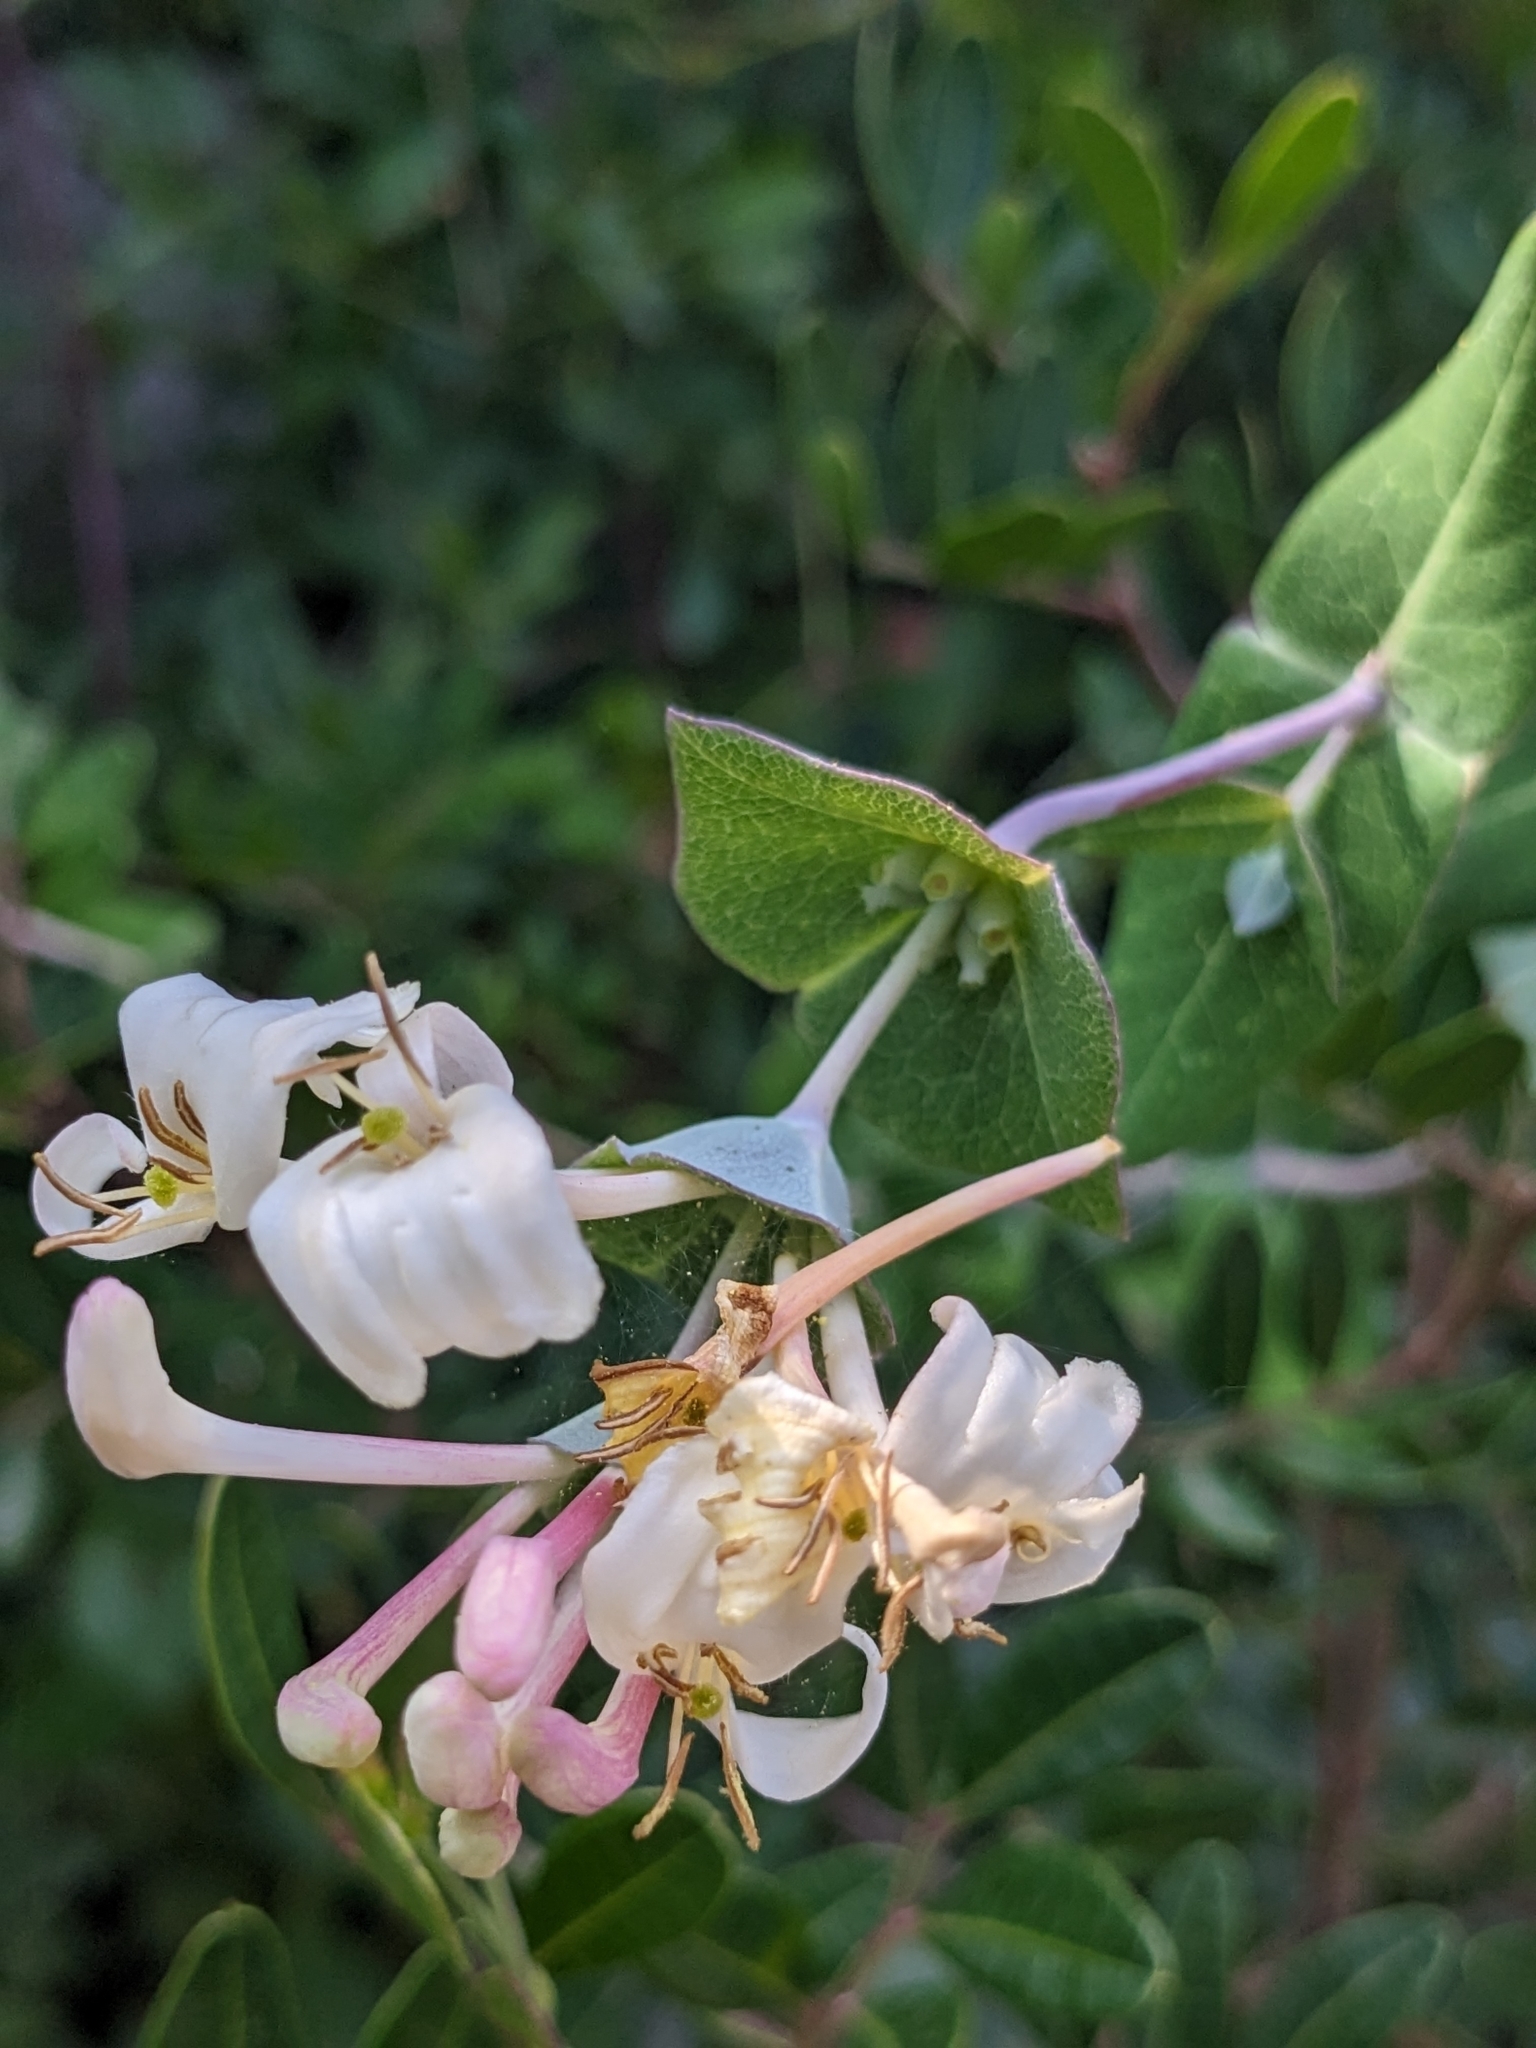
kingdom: Plantae
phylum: Tracheophyta
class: Magnoliopsida
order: Dipsacales
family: Caprifoliaceae
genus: Lonicera
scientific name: Lonicera implexa
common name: Minorca honeysuckle
